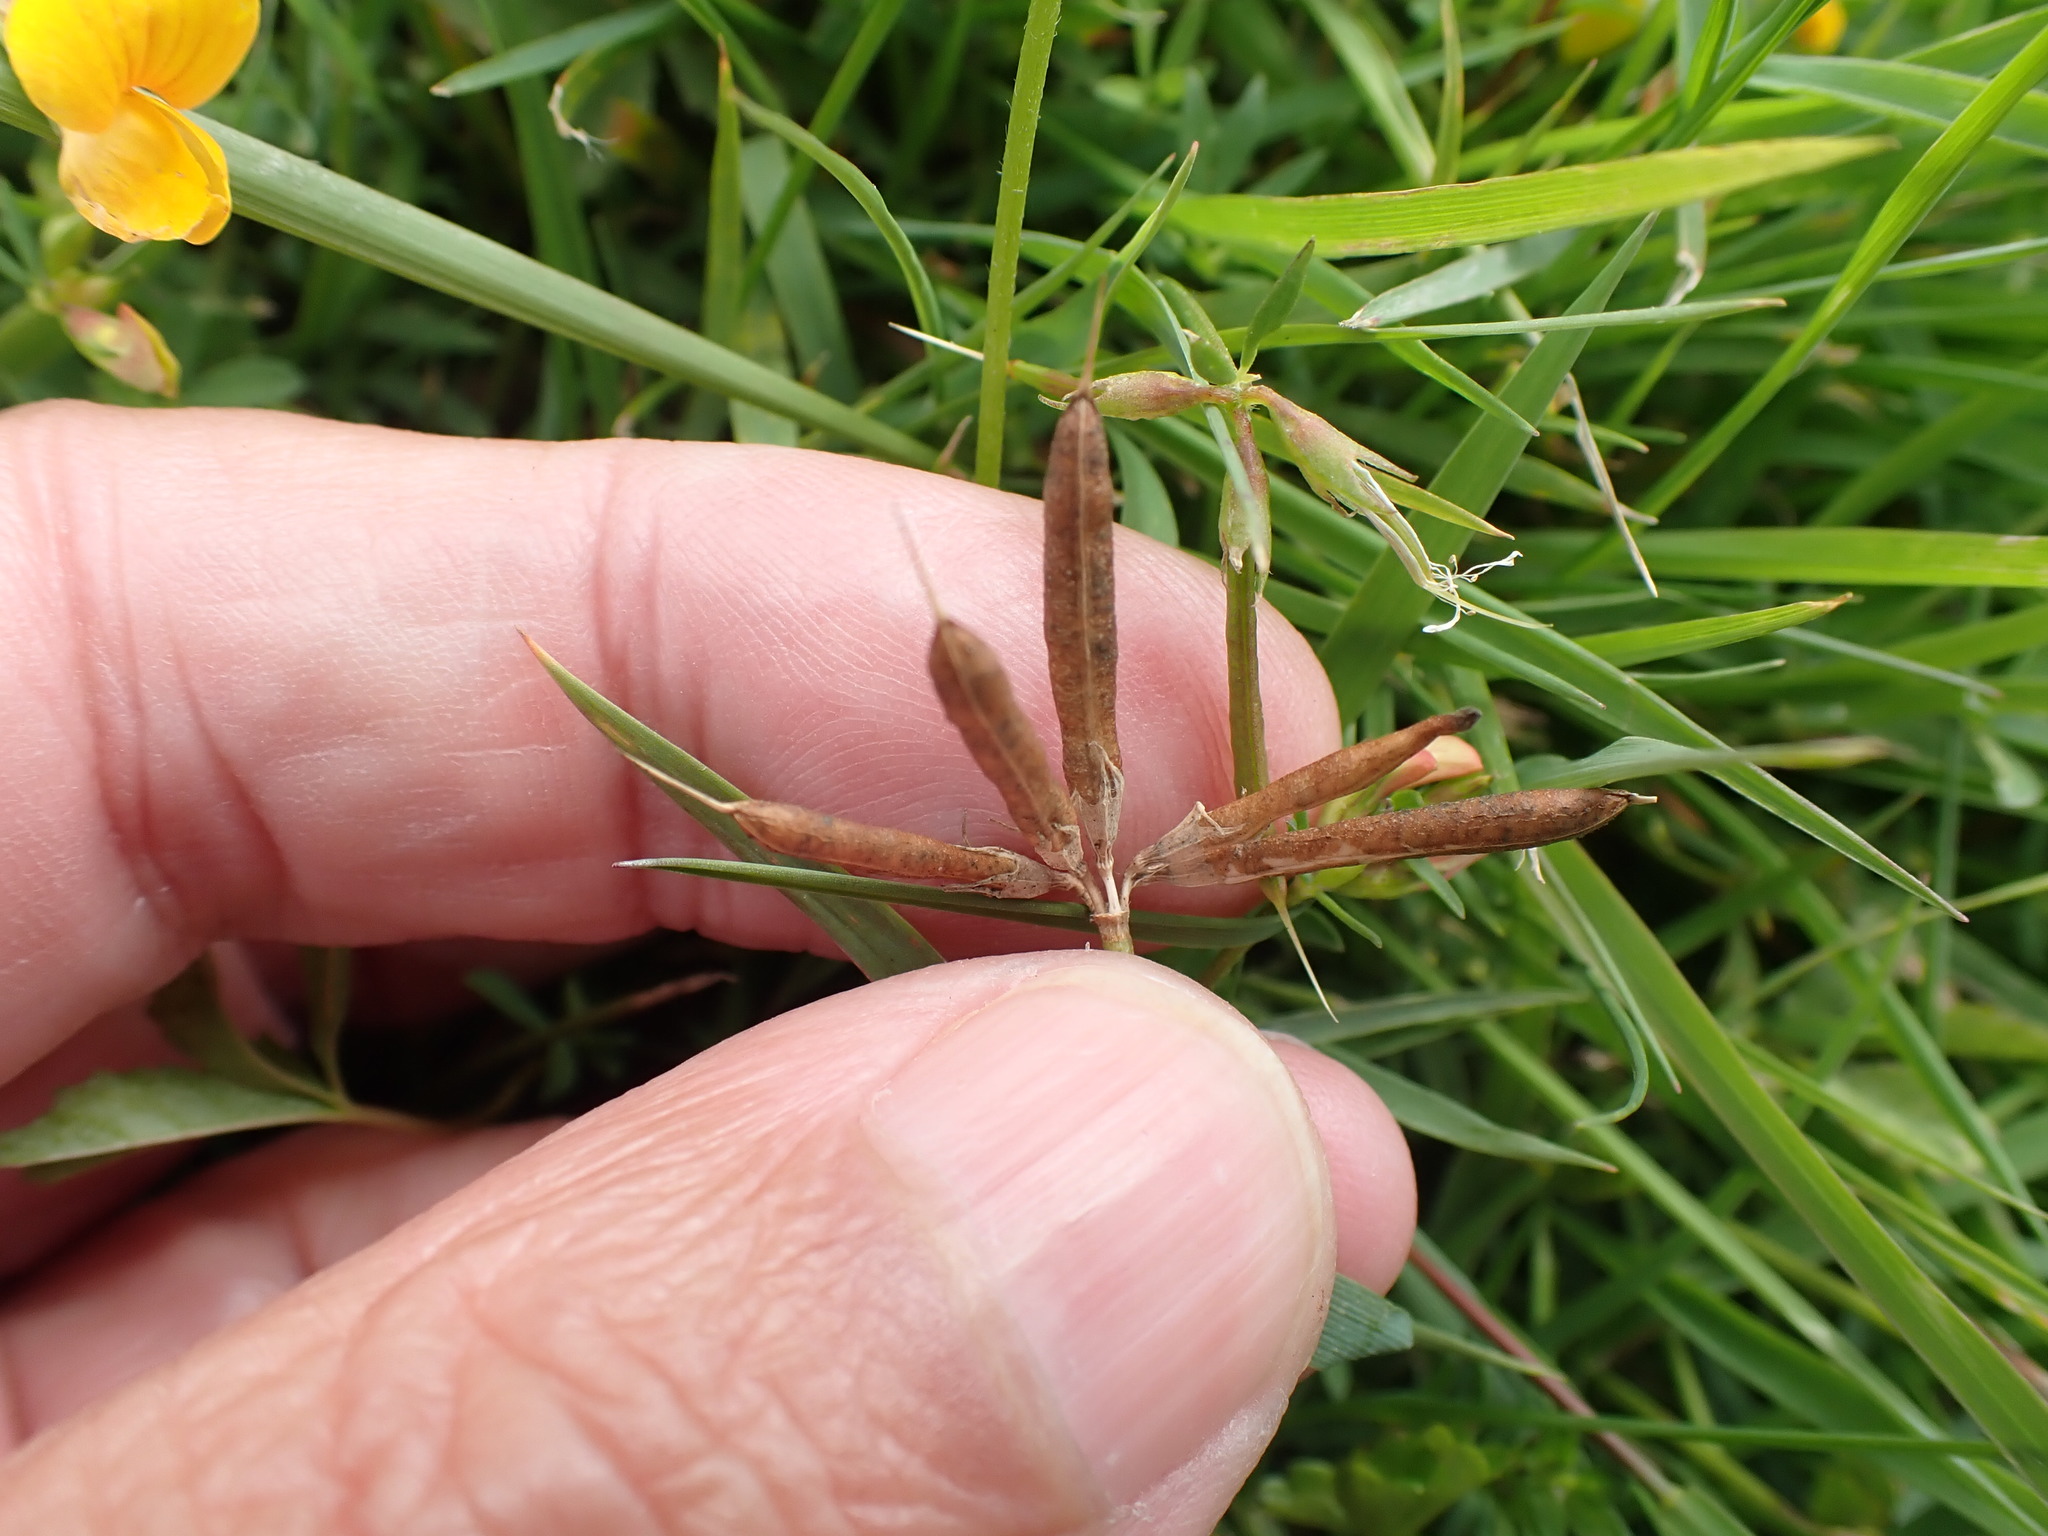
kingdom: Plantae
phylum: Tracheophyta
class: Magnoliopsida
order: Fabales
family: Fabaceae
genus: Lotus
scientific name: Lotus tenuis
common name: Narrow-leaved bird's-foot-trefoil
